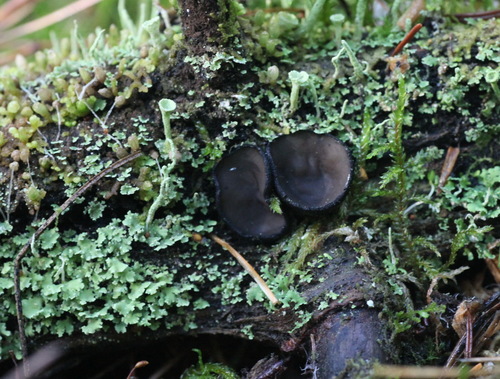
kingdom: Fungi
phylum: Ascomycota
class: Pezizomycetes
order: Pezizales
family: Sarcosomataceae
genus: Pseudoplectania
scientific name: Pseudoplectania nigrella
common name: Ebony cup
